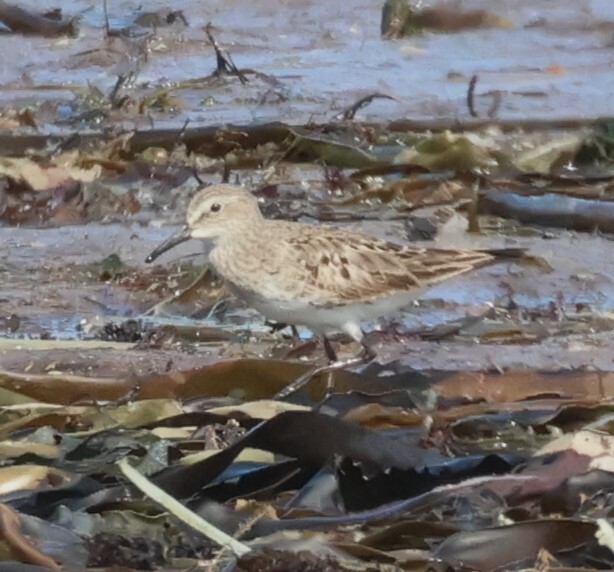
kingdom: Animalia
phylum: Chordata
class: Aves
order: Charadriiformes
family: Scolopacidae
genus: Calidris
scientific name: Calidris fuscicollis
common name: White-rumped sandpiper
